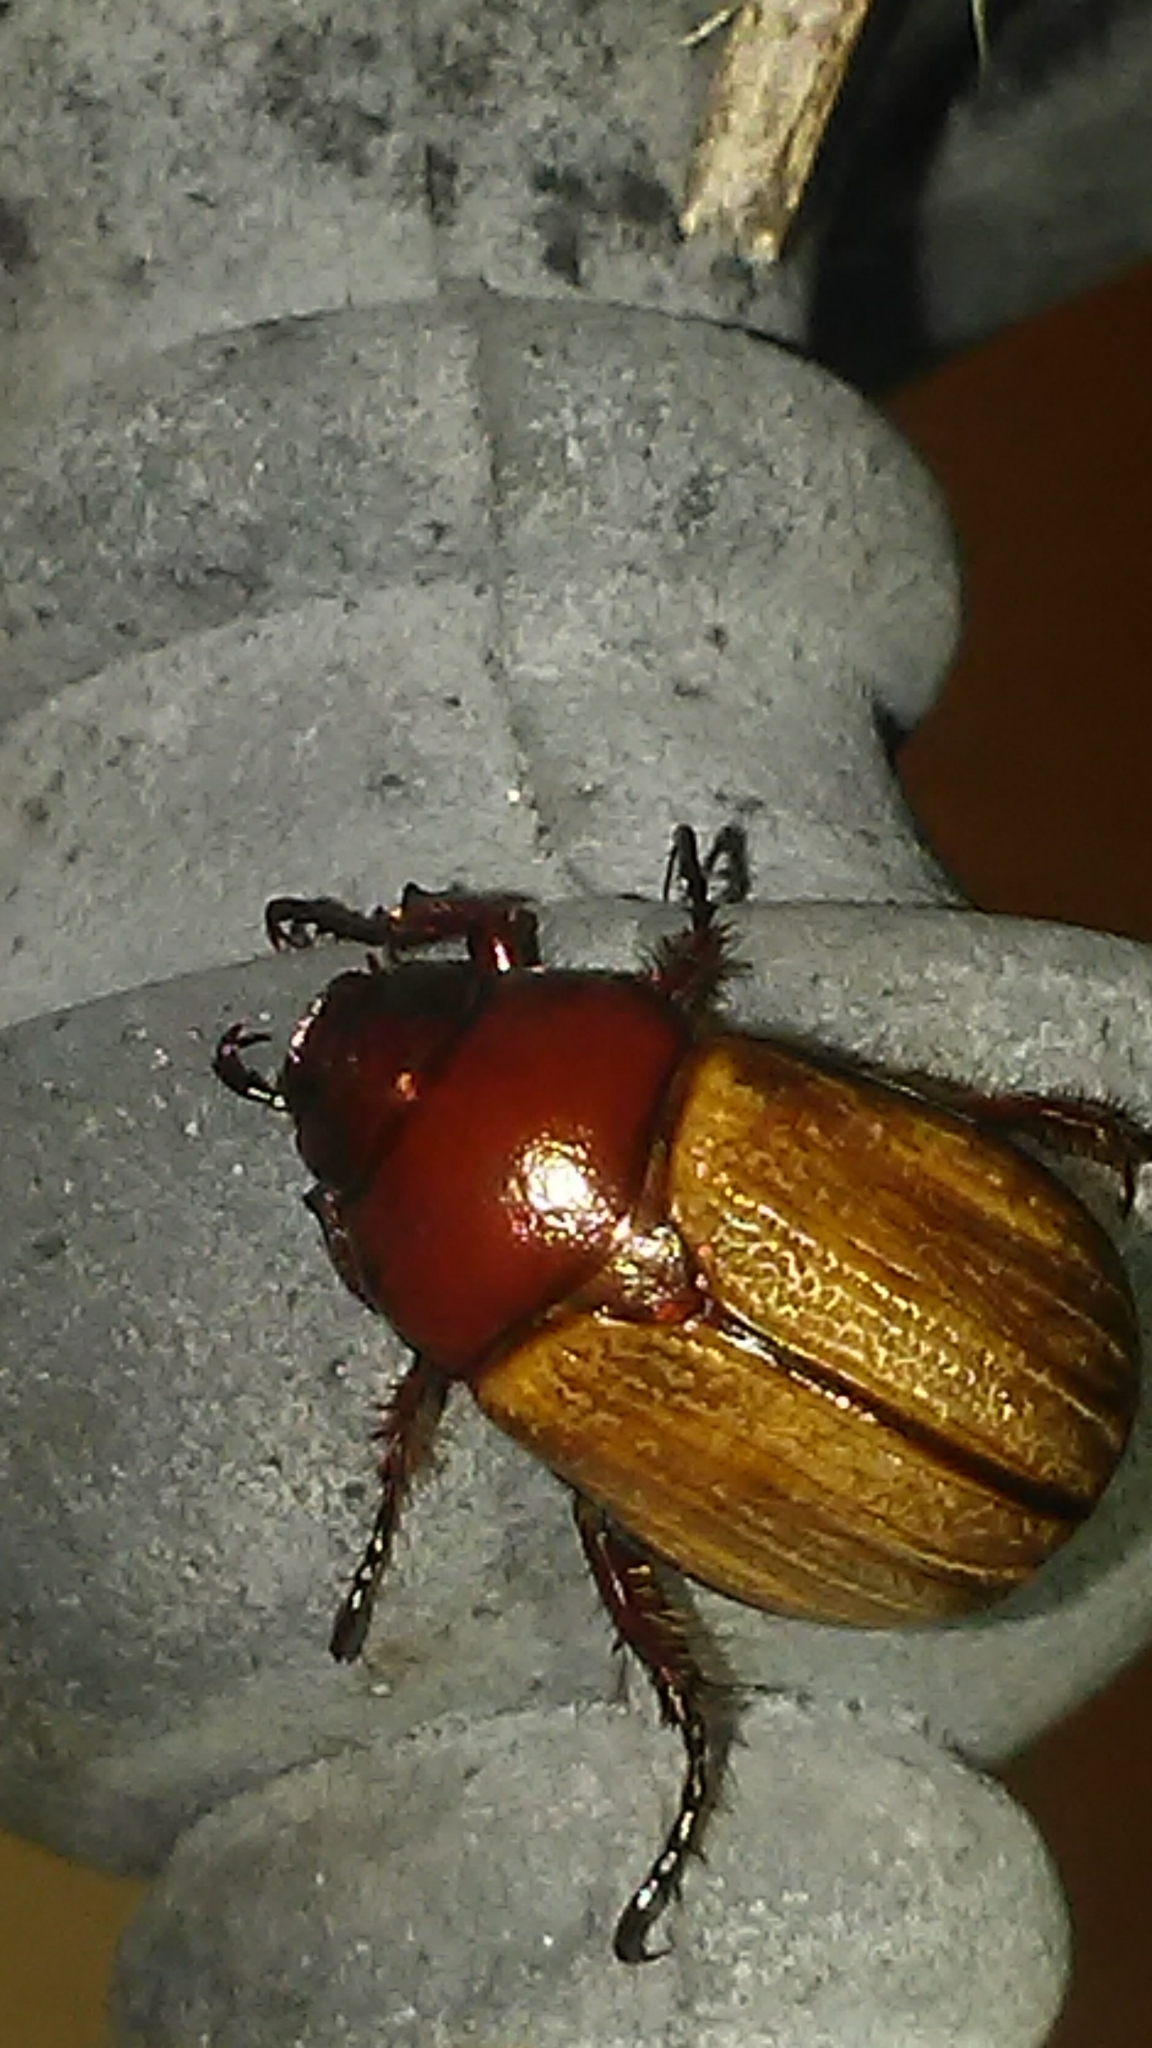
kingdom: Animalia
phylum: Arthropoda
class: Insecta
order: Coleoptera
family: Scarabaeidae
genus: Paranomala
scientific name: Paranomala flavipennis
